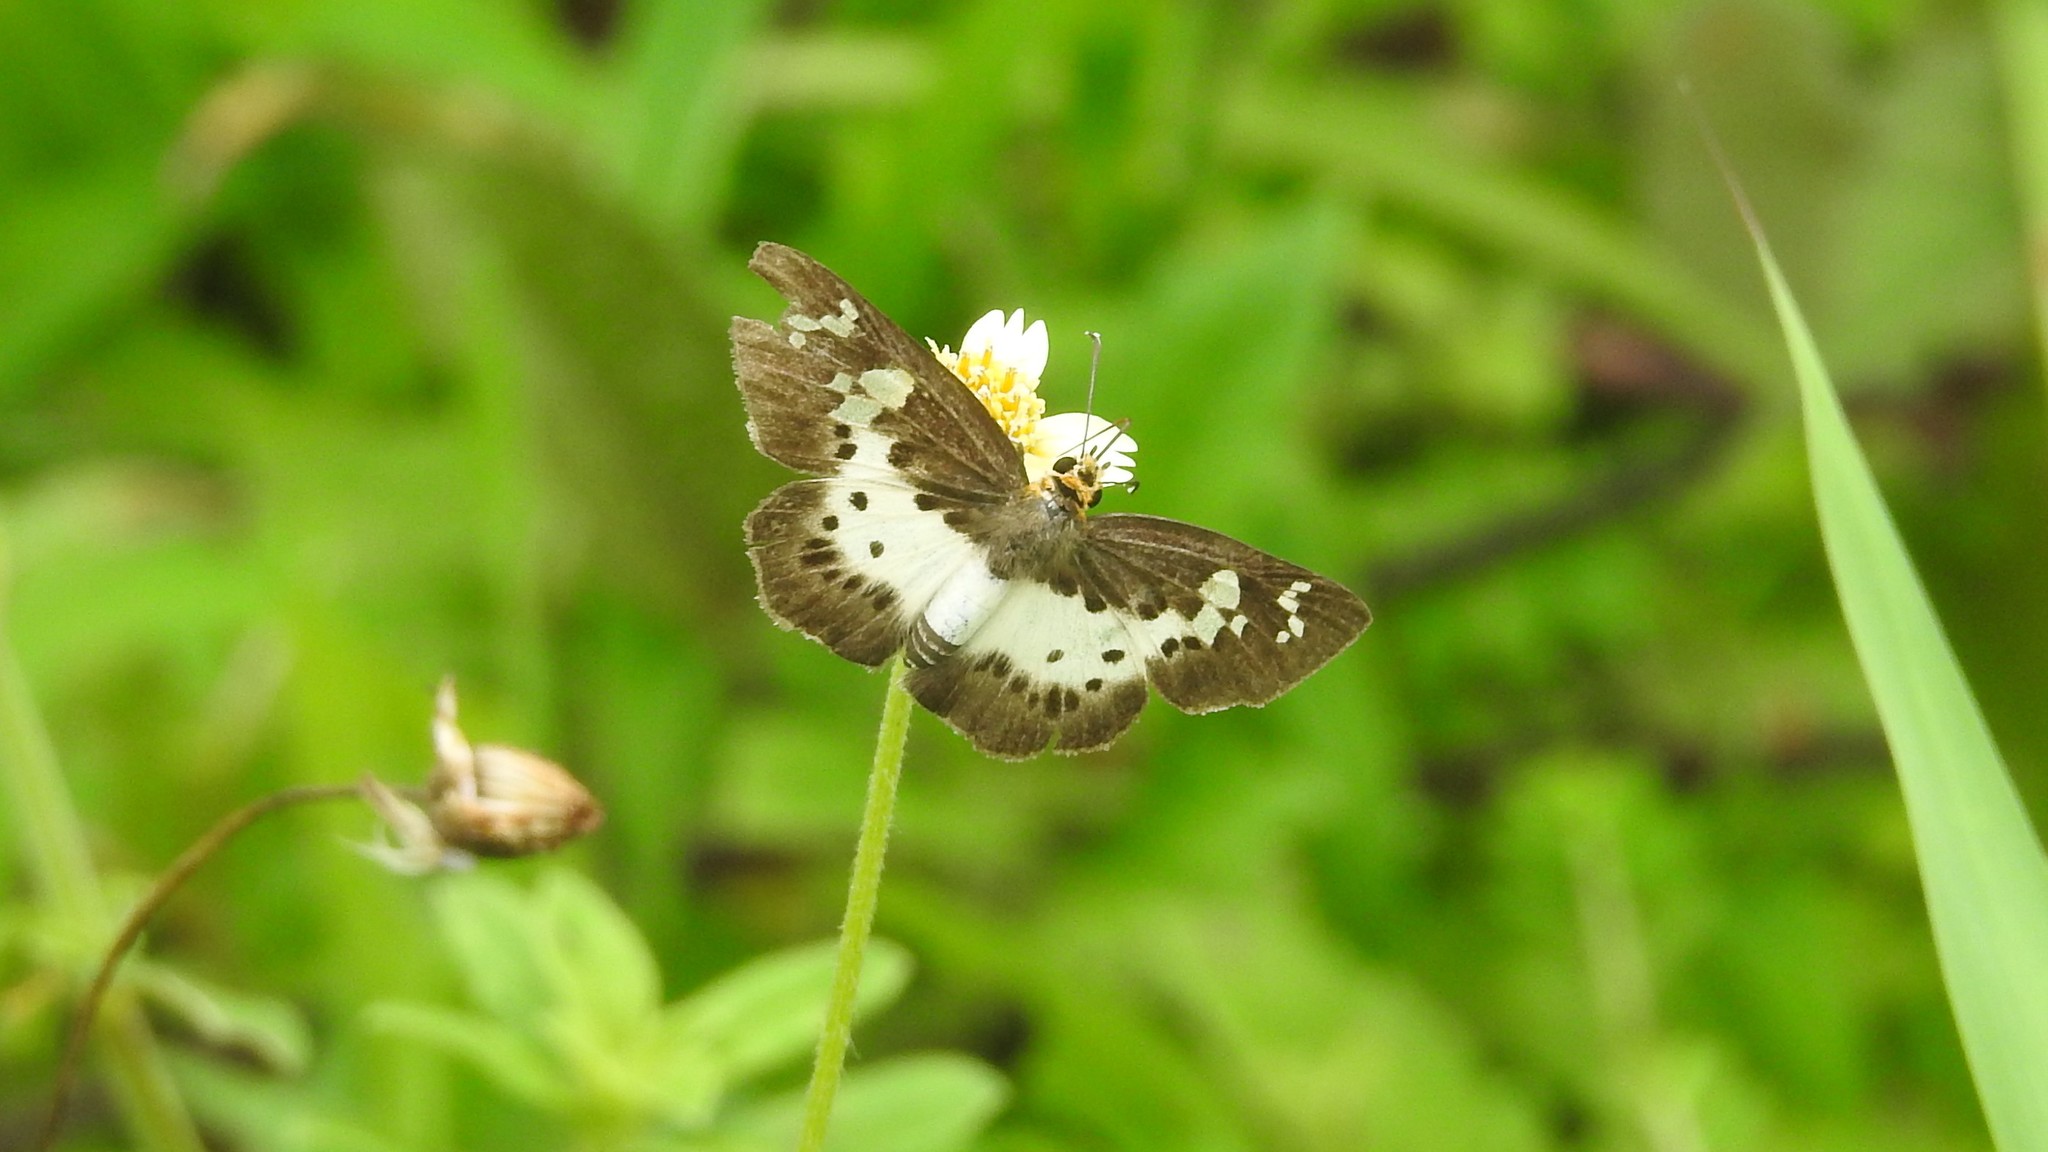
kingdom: Animalia
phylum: Arthropoda
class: Insecta
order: Lepidoptera
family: Hesperiidae
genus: Daimio
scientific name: Daimio
